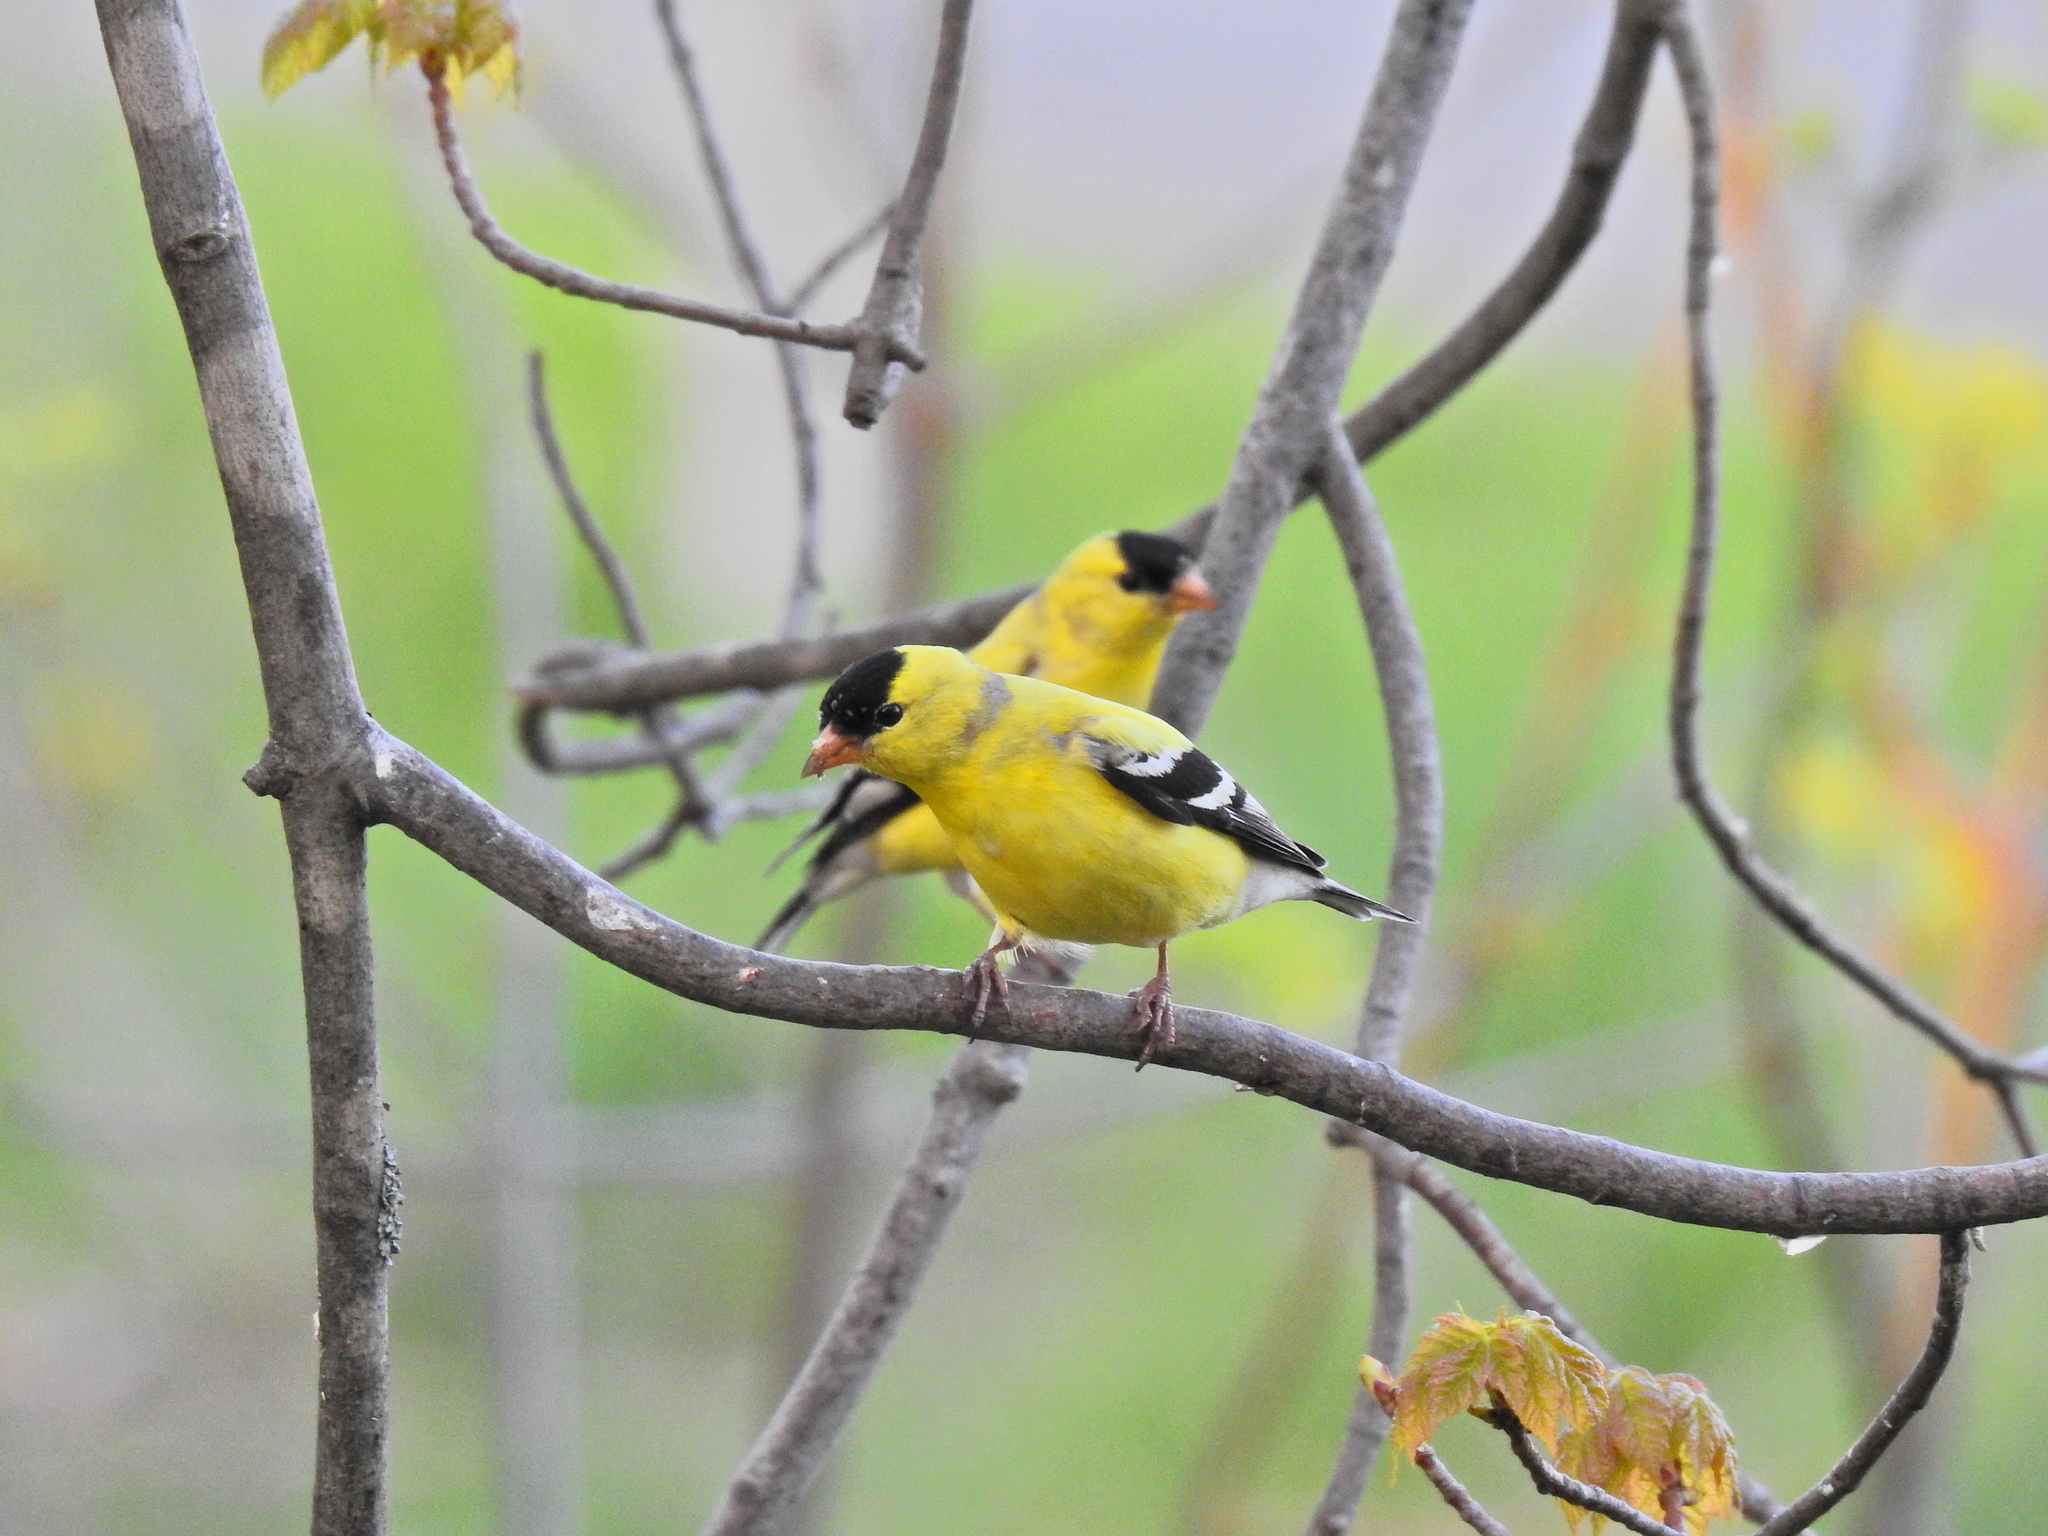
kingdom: Animalia
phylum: Chordata
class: Aves
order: Passeriformes
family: Fringillidae
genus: Spinus
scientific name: Spinus tristis
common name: American goldfinch
